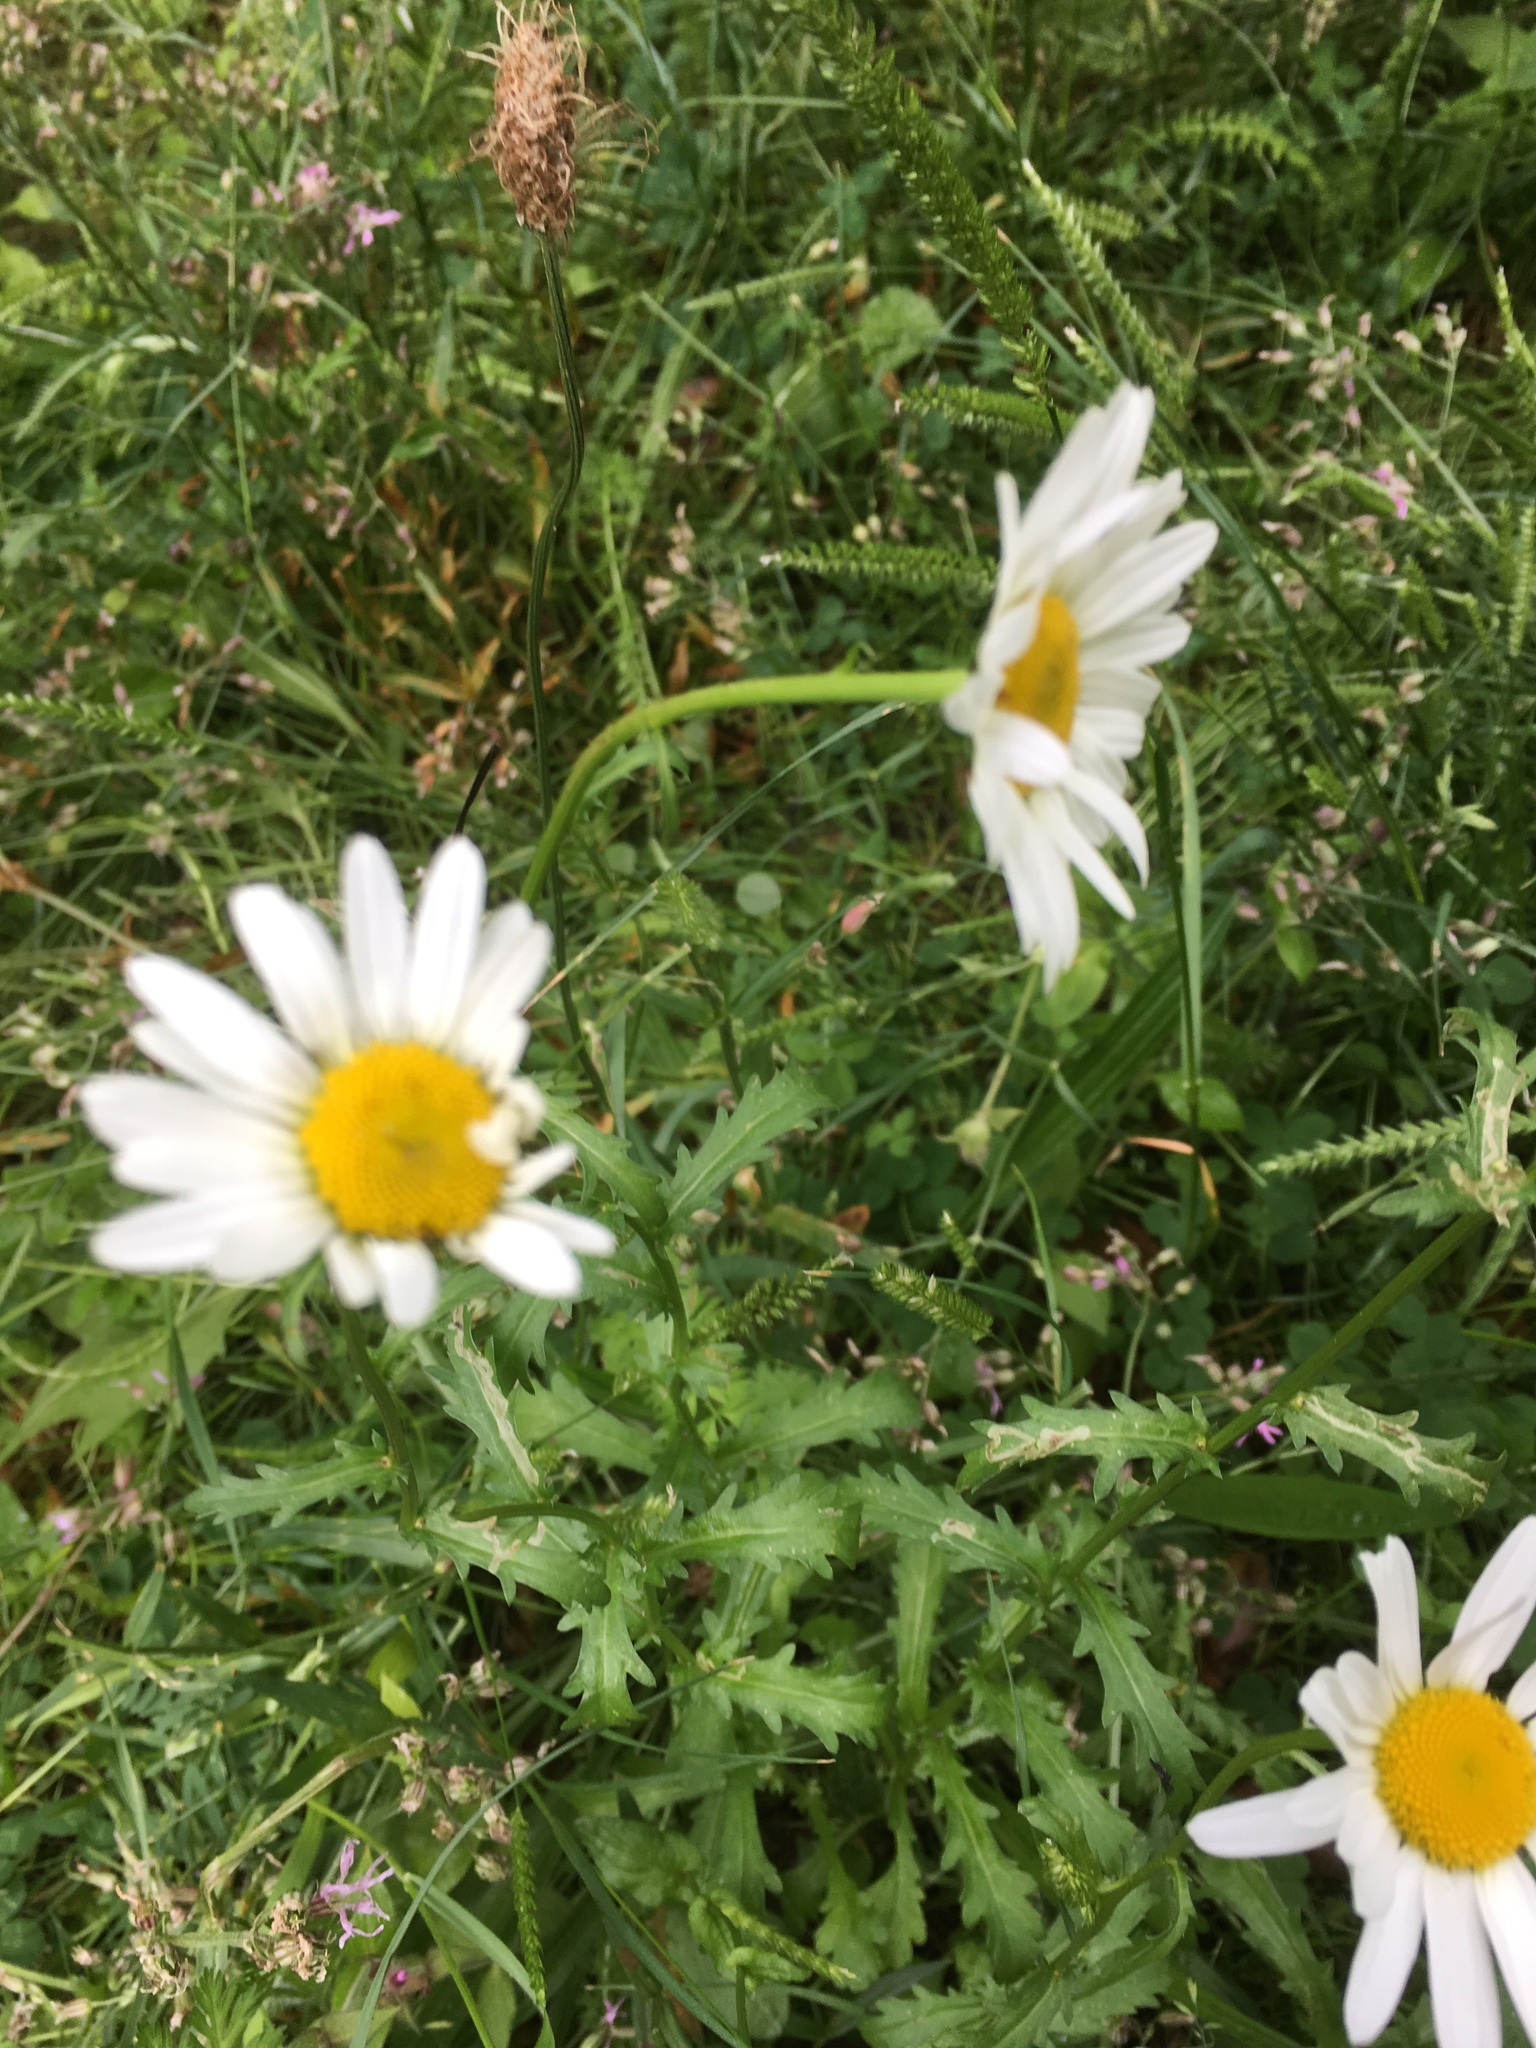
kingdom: Plantae
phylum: Tracheophyta
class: Magnoliopsida
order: Asterales
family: Asteraceae
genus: Leucanthemum
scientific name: Leucanthemum vulgare
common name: Oxeye daisy
